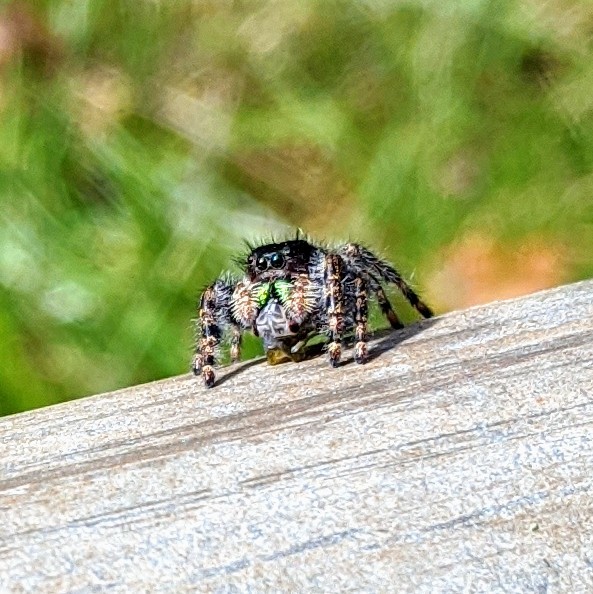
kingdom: Animalia
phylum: Arthropoda
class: Arachnida
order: Araneae
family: Salticidae
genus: Phidippus
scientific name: Phidippus audax
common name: Bold jumper
